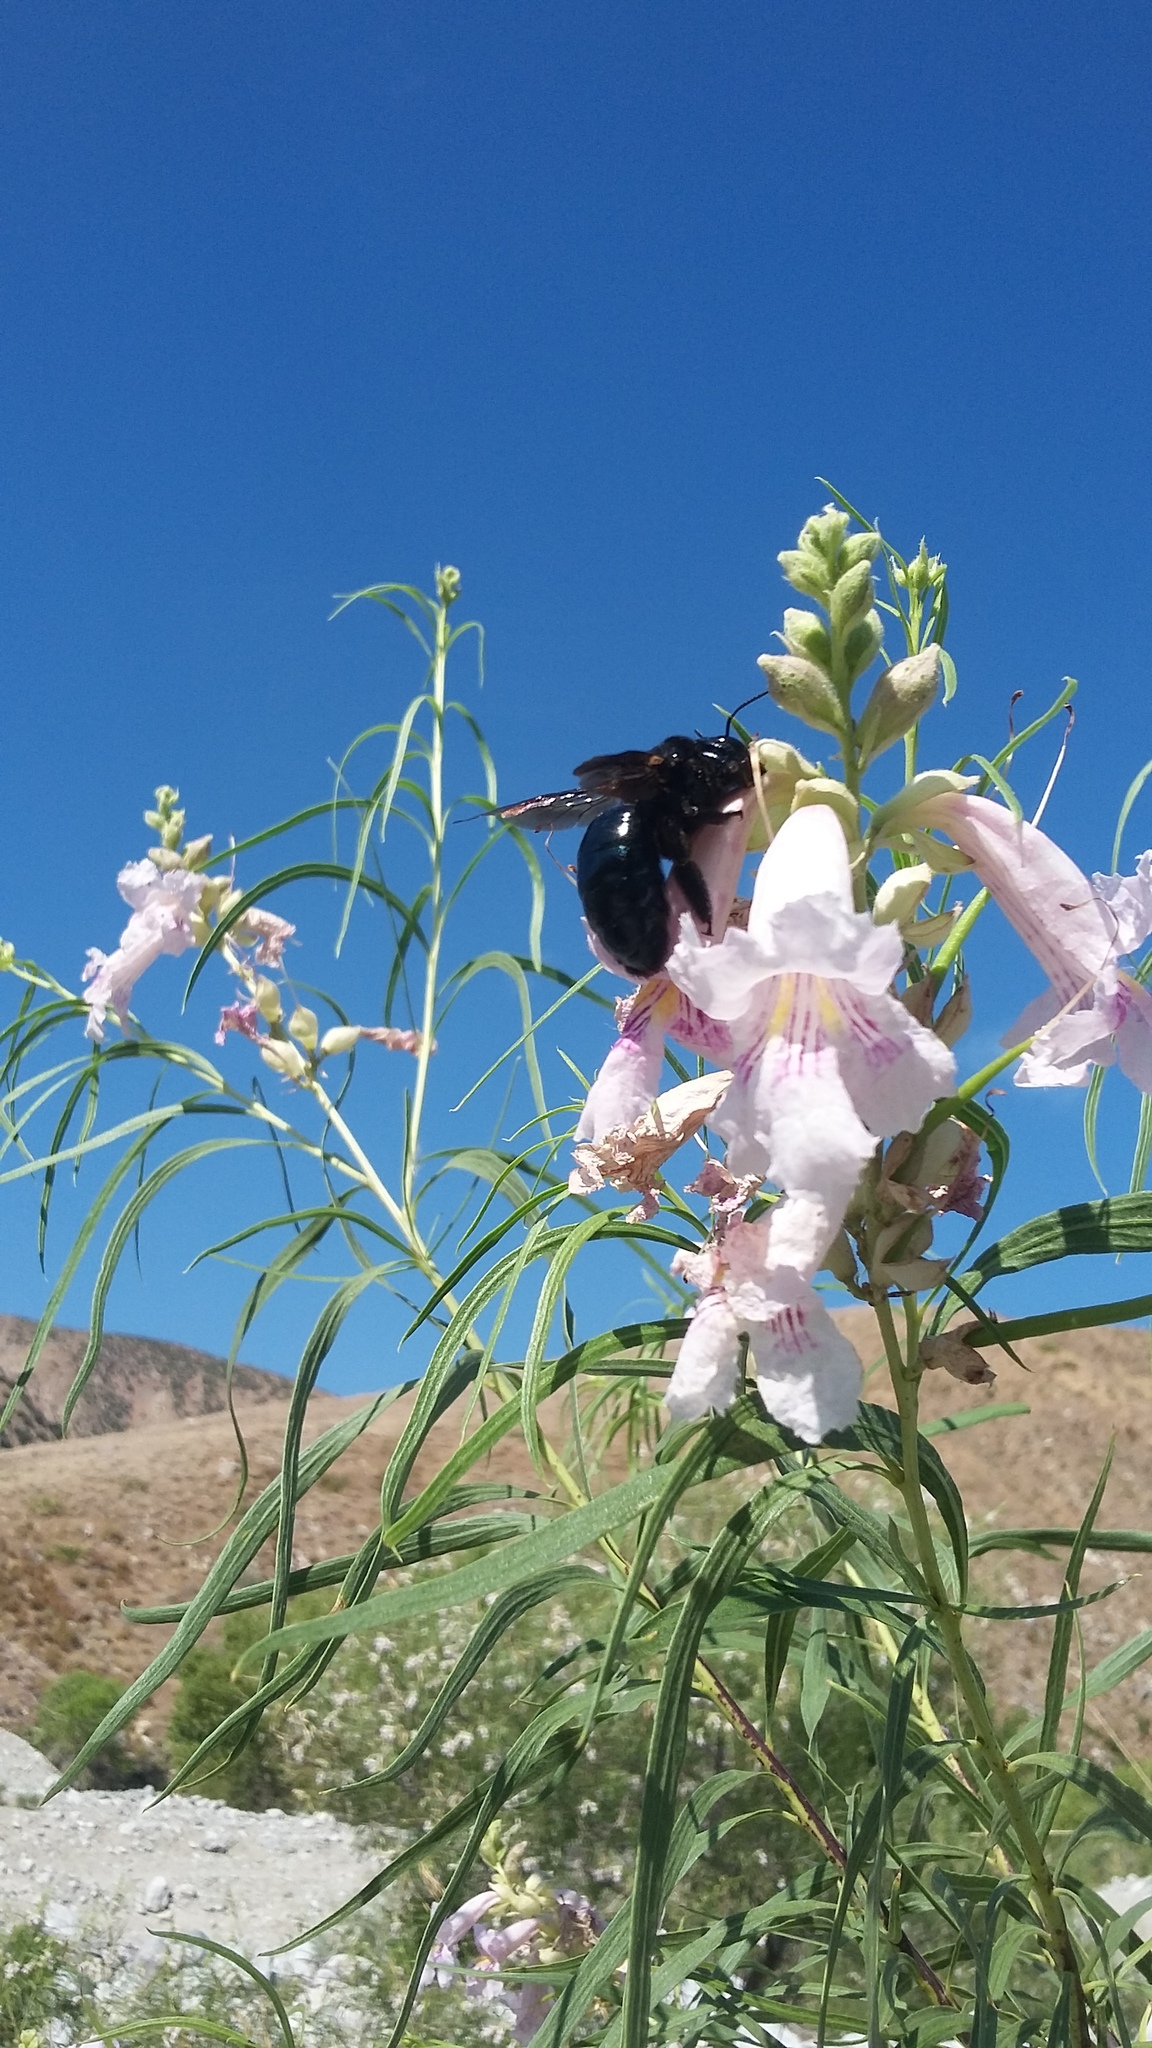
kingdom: Animalia
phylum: Arthropoda
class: Insecta
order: Hymenoptera
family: Apidae
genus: Xylocopa
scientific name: Xylocopa californica
